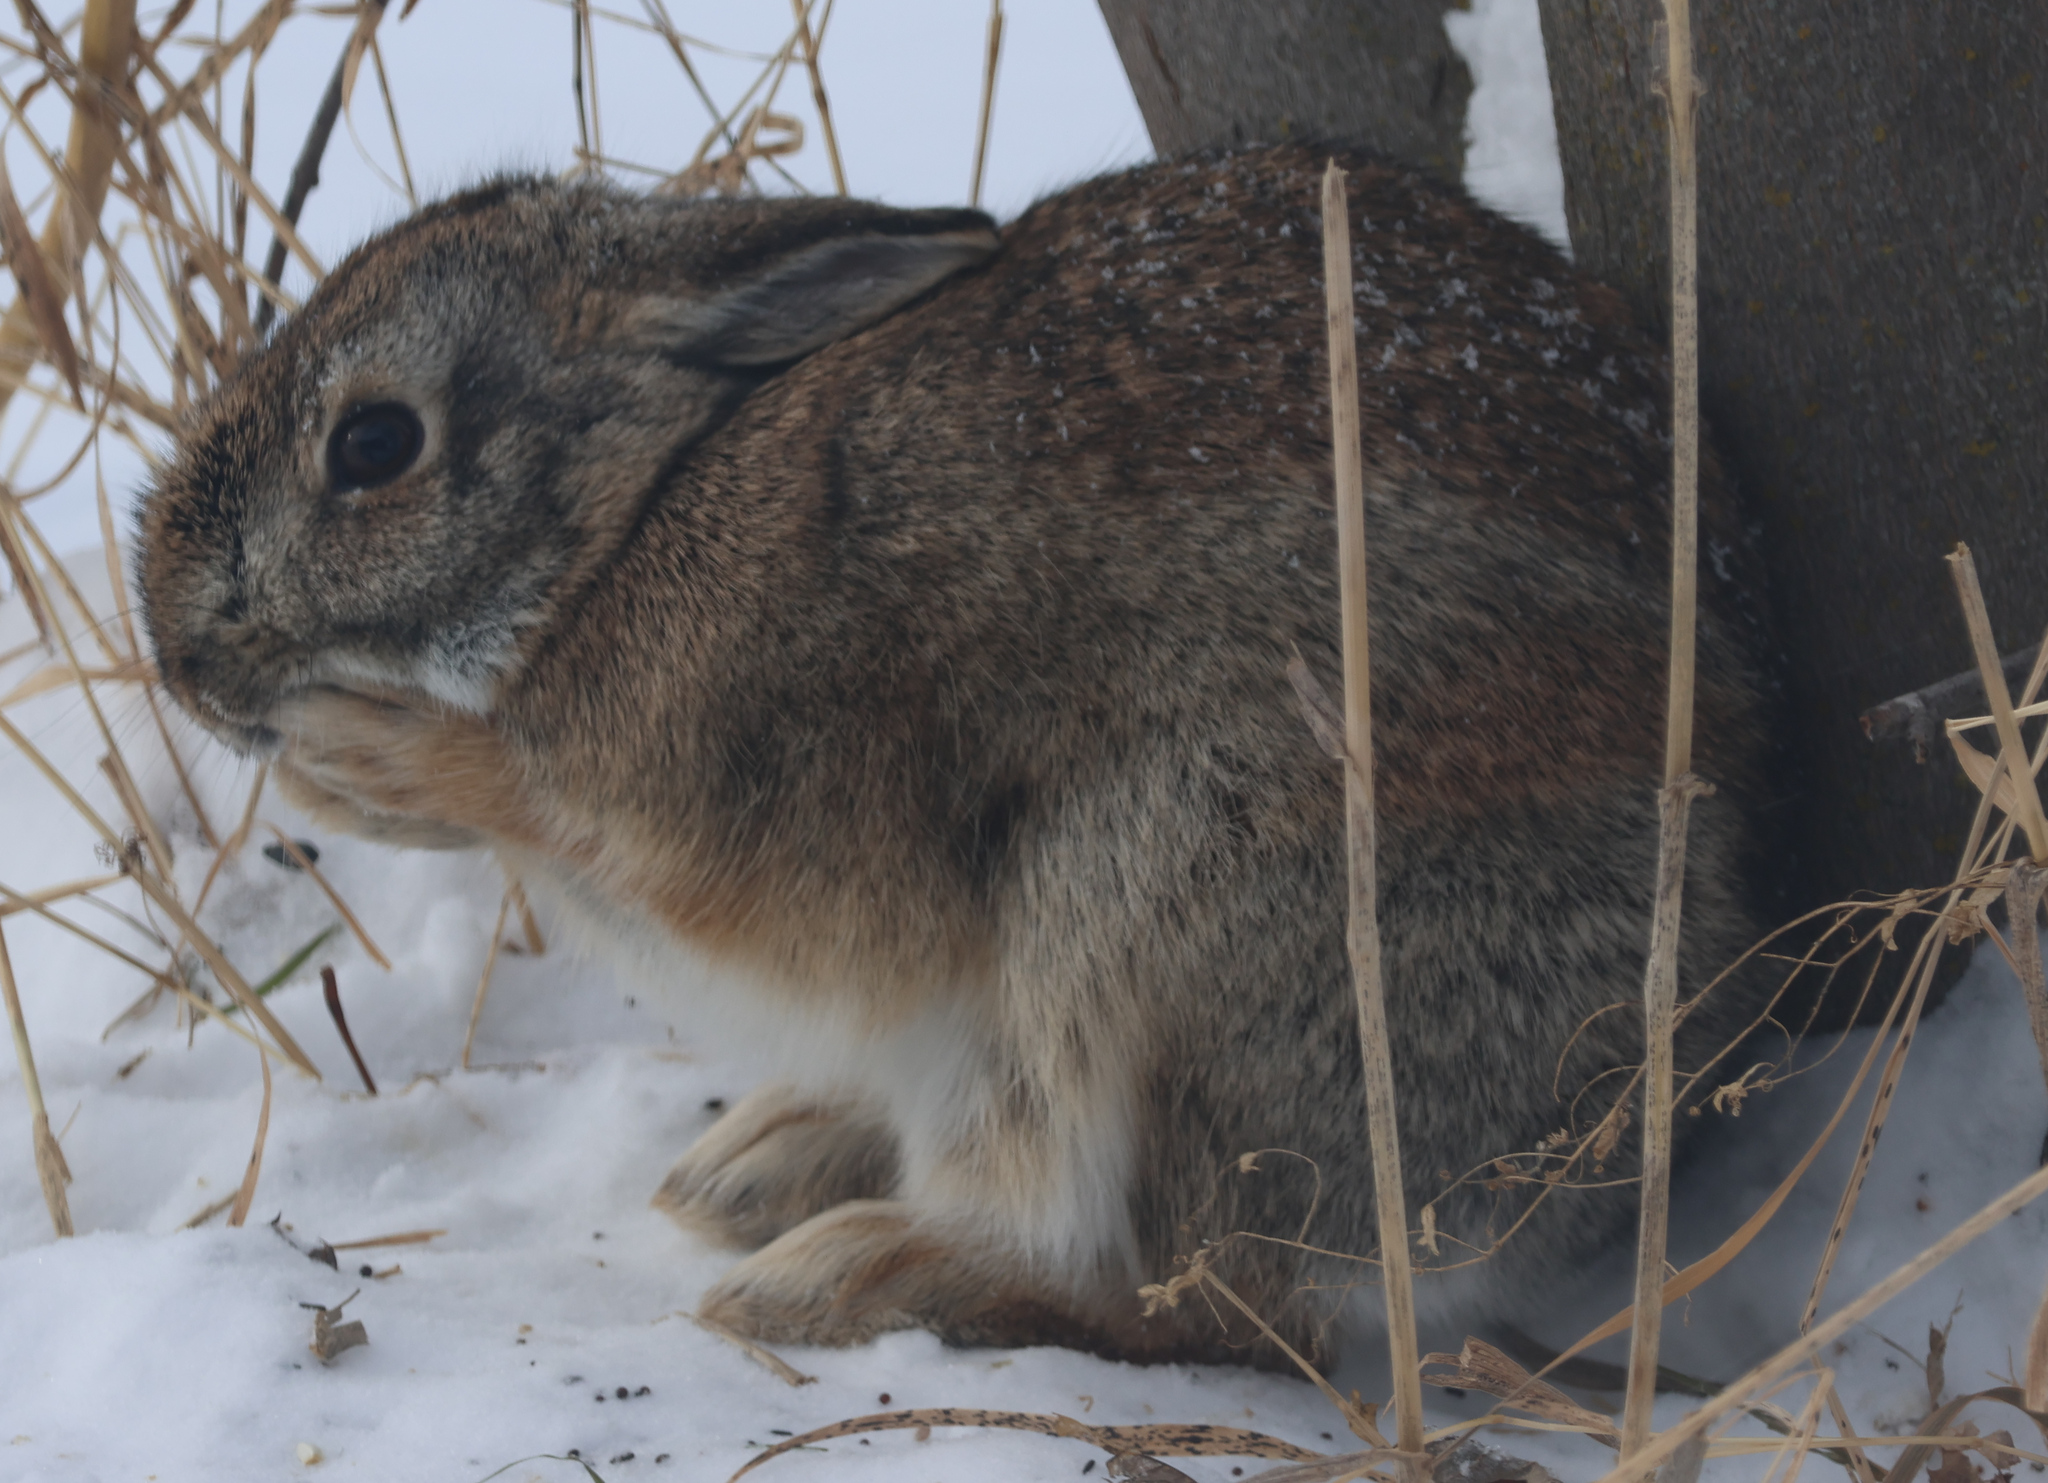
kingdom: Animalia
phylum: Chordata
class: Mammalia
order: Lagomorpha
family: Leporidae
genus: Sylvilagus
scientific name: Sylvilagus floridanus
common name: Eastern cottontail
